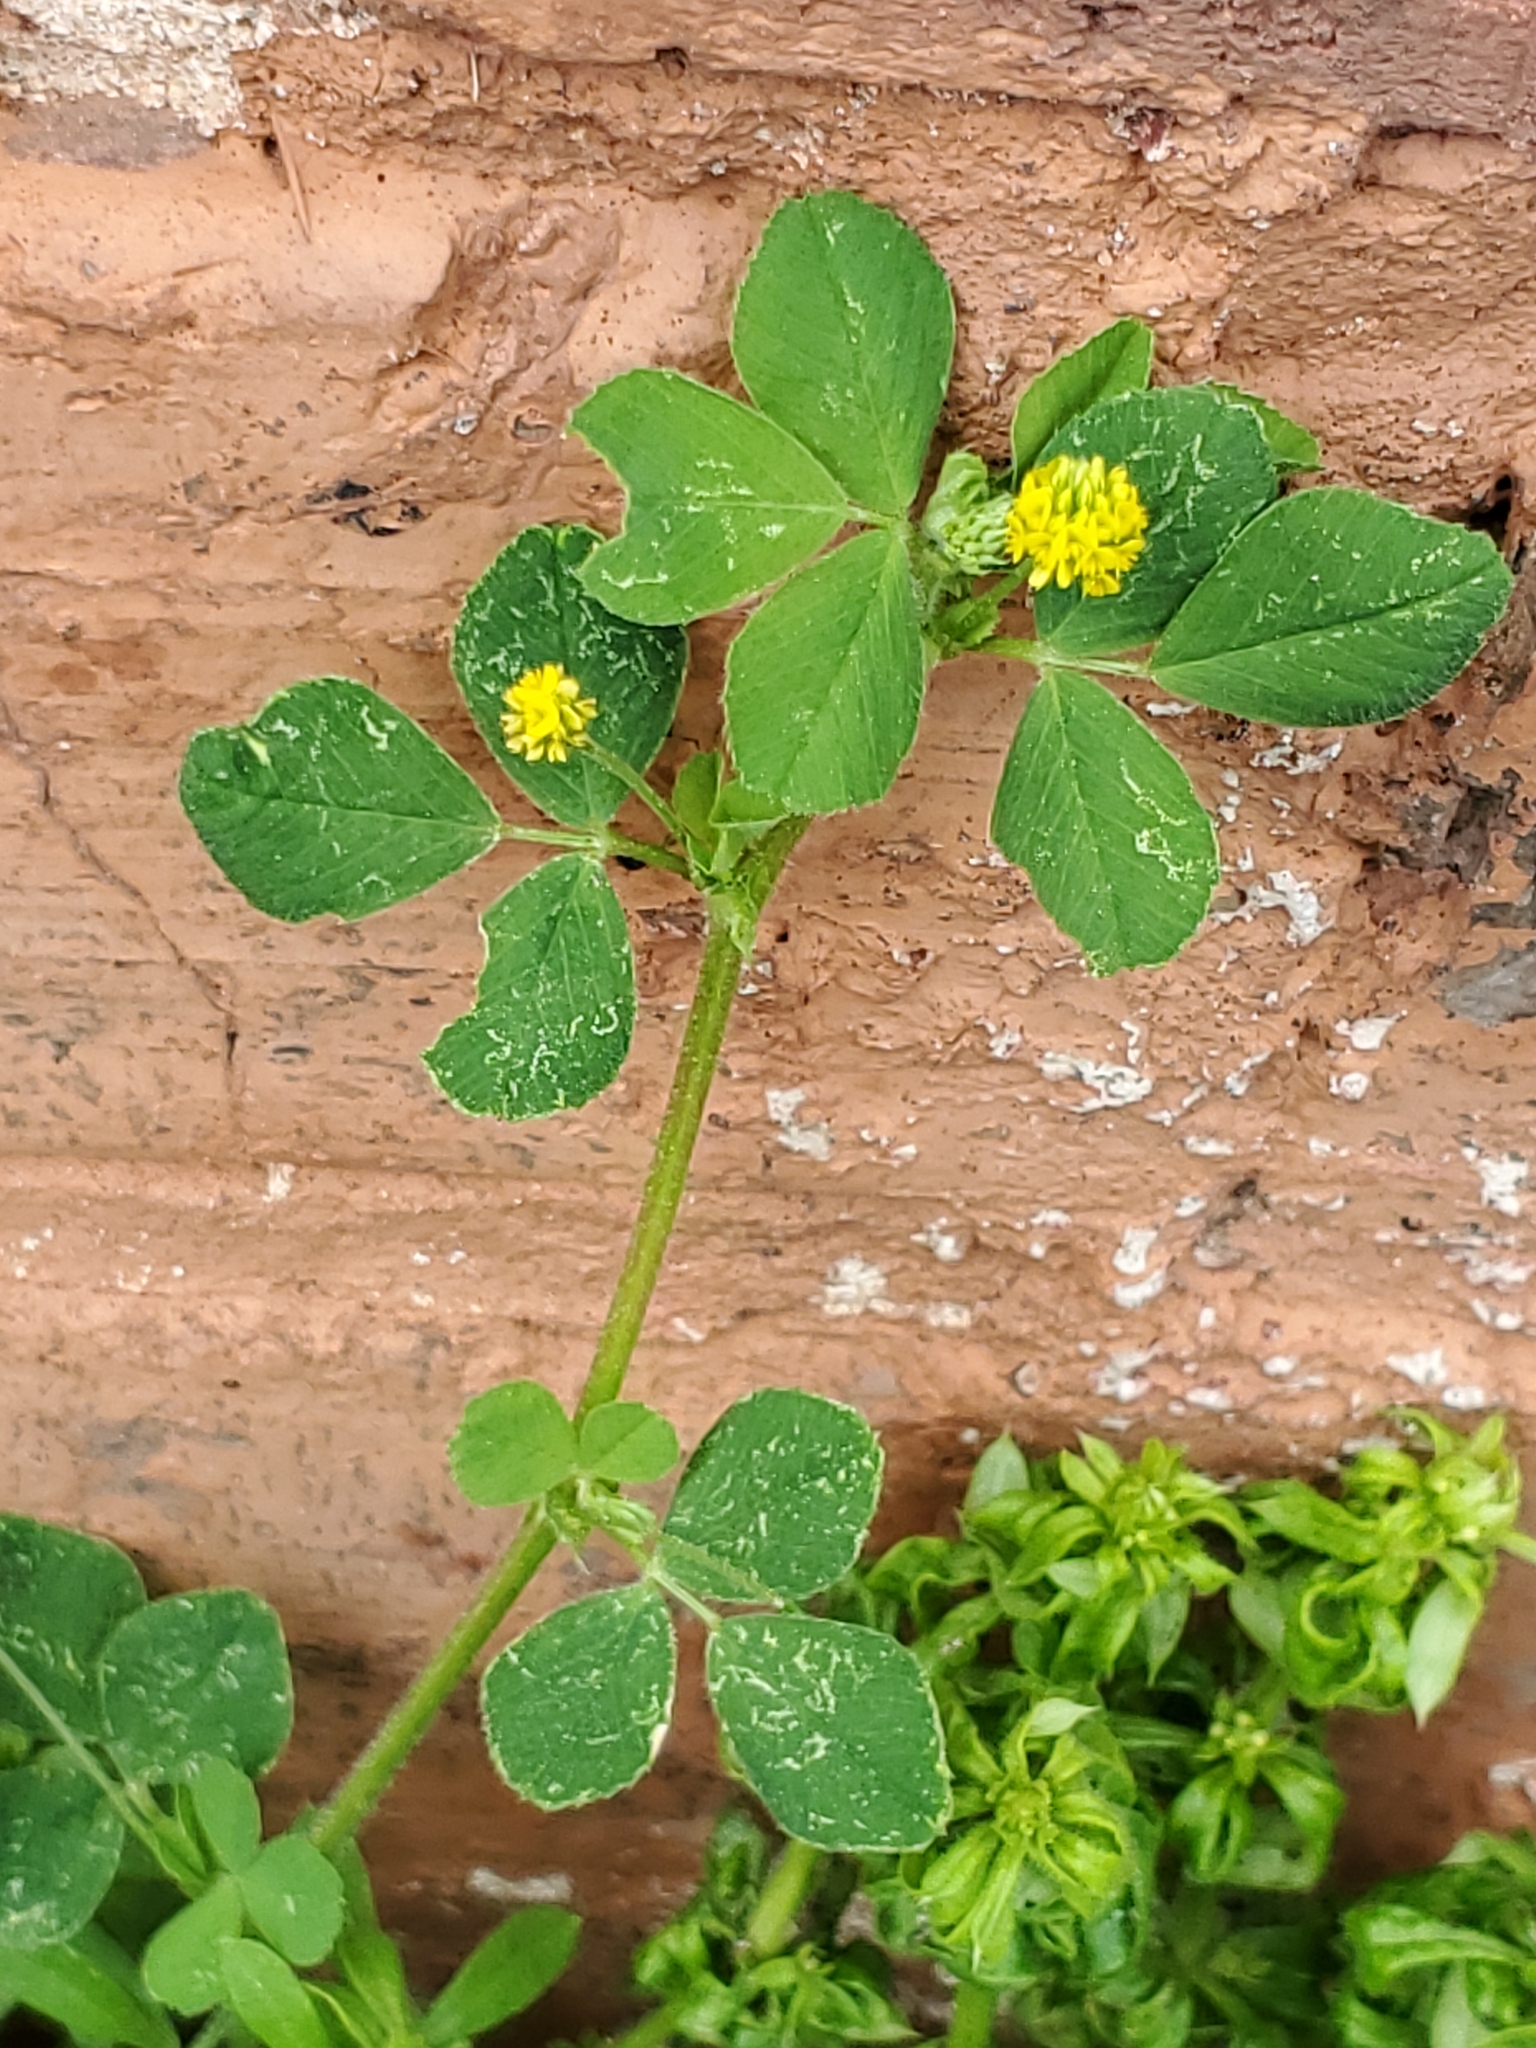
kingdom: Plantae
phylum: Tracheophyta
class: Magnoliopsida
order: Fabales
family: Fabaceae
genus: Medicago
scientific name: Medicago lupulina
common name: Black medick
